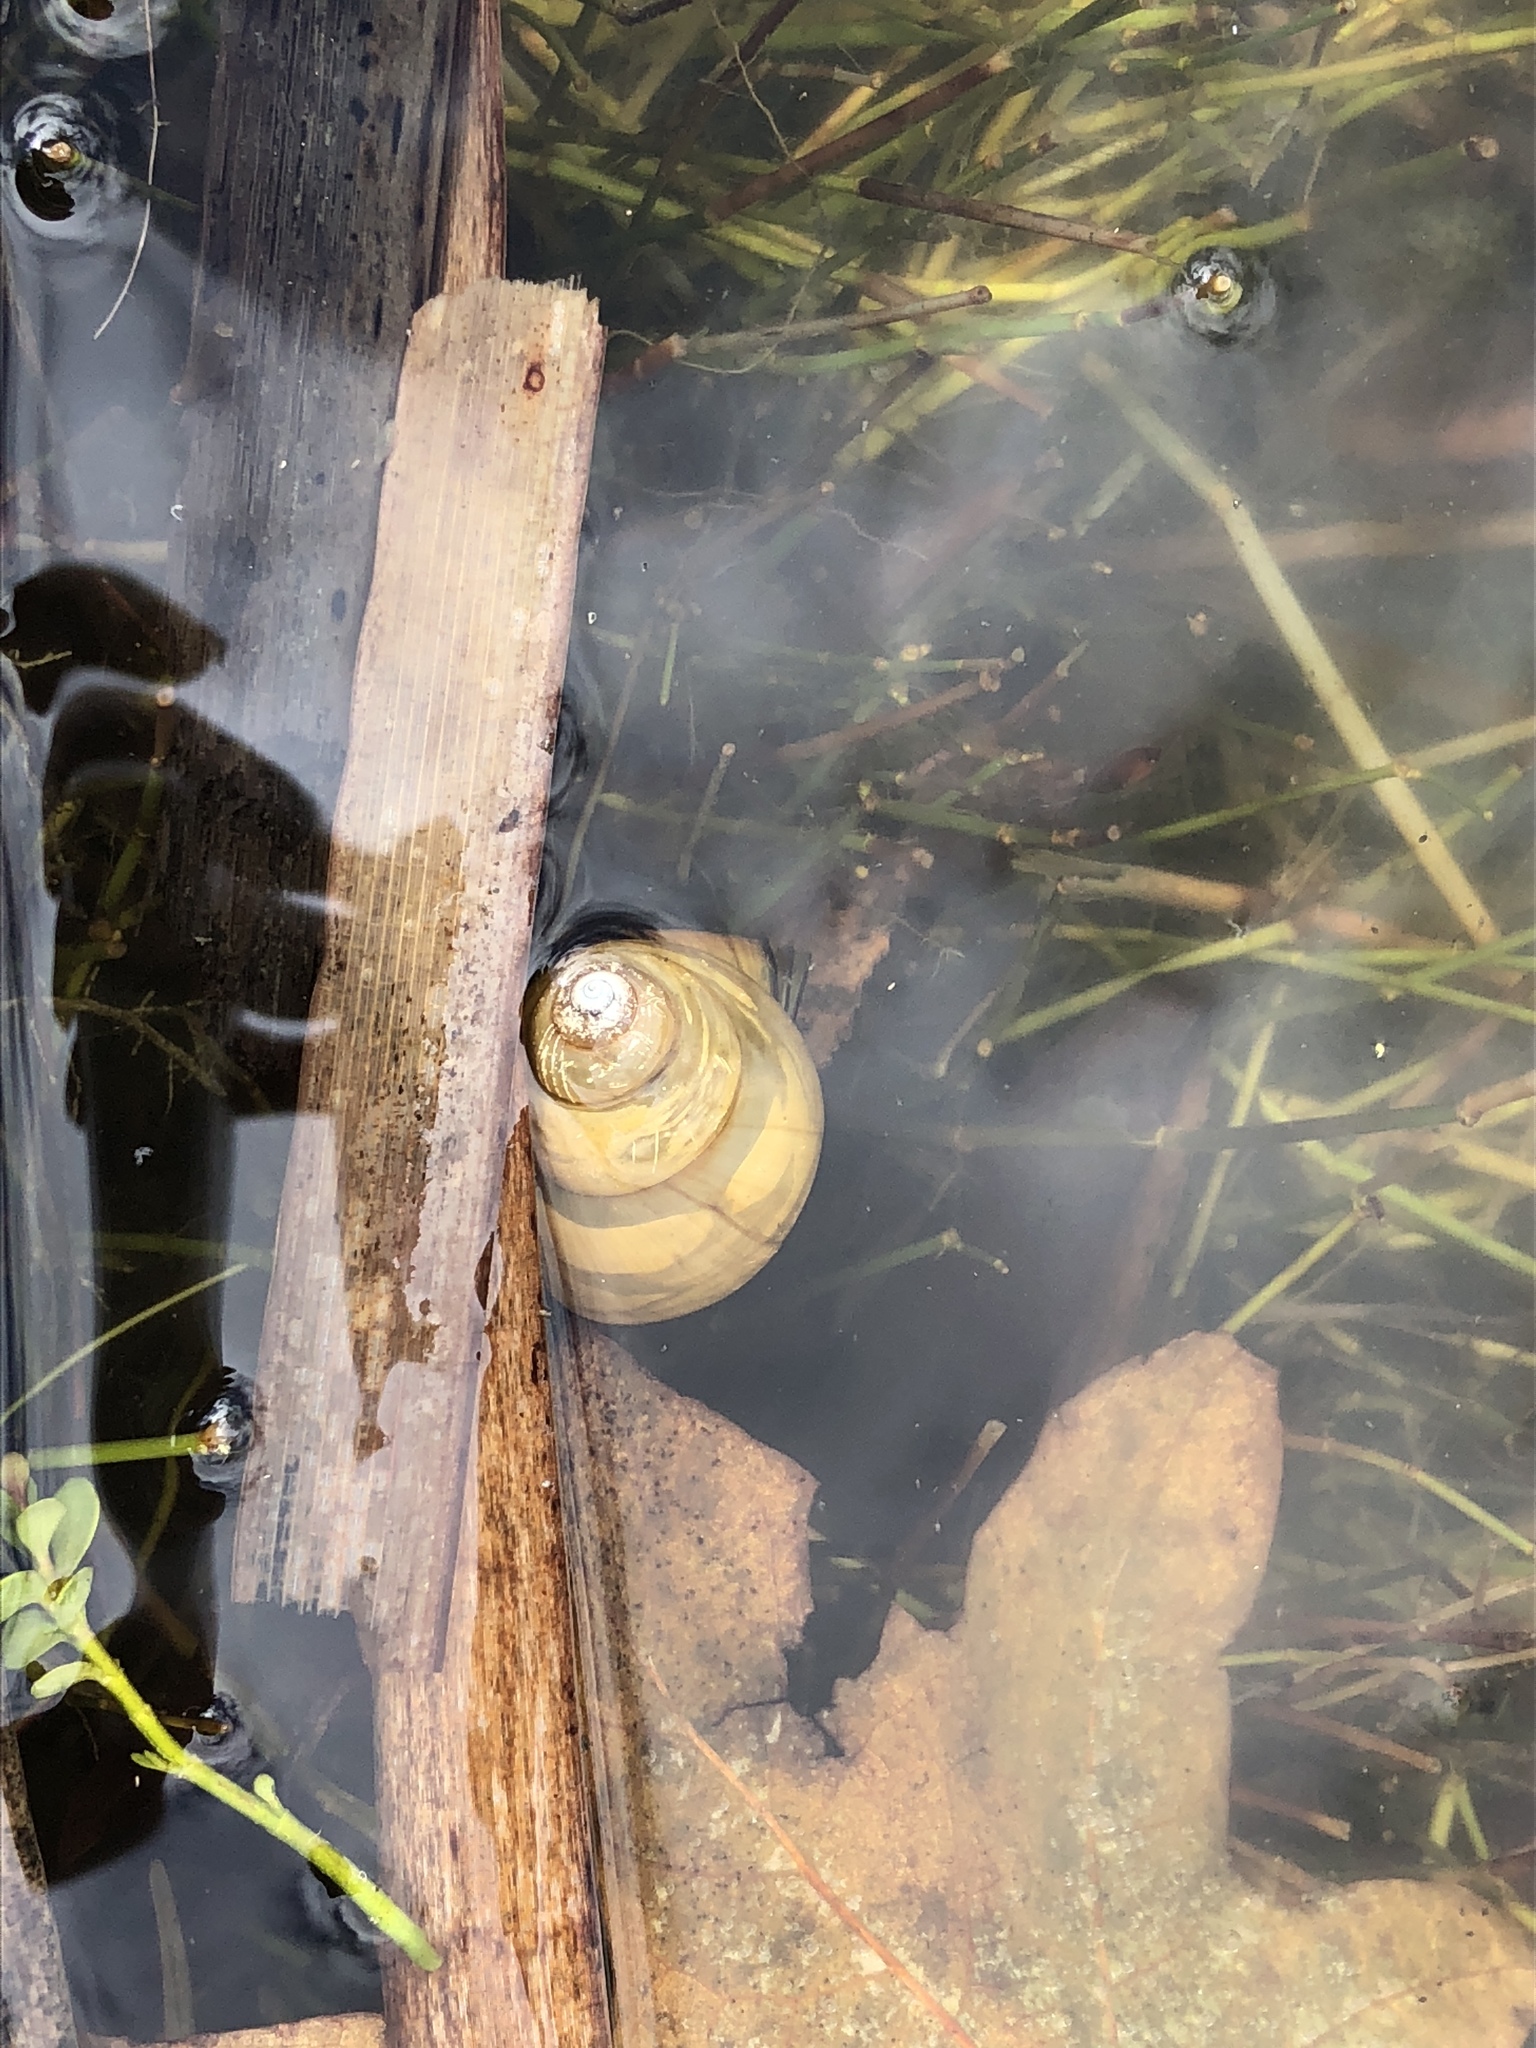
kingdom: Animalia
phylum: Mollusca
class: Gastropoda
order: Architaenioglossa
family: Viviparidae
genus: Cipangopaludina
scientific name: Cipangopaludina chinensis
